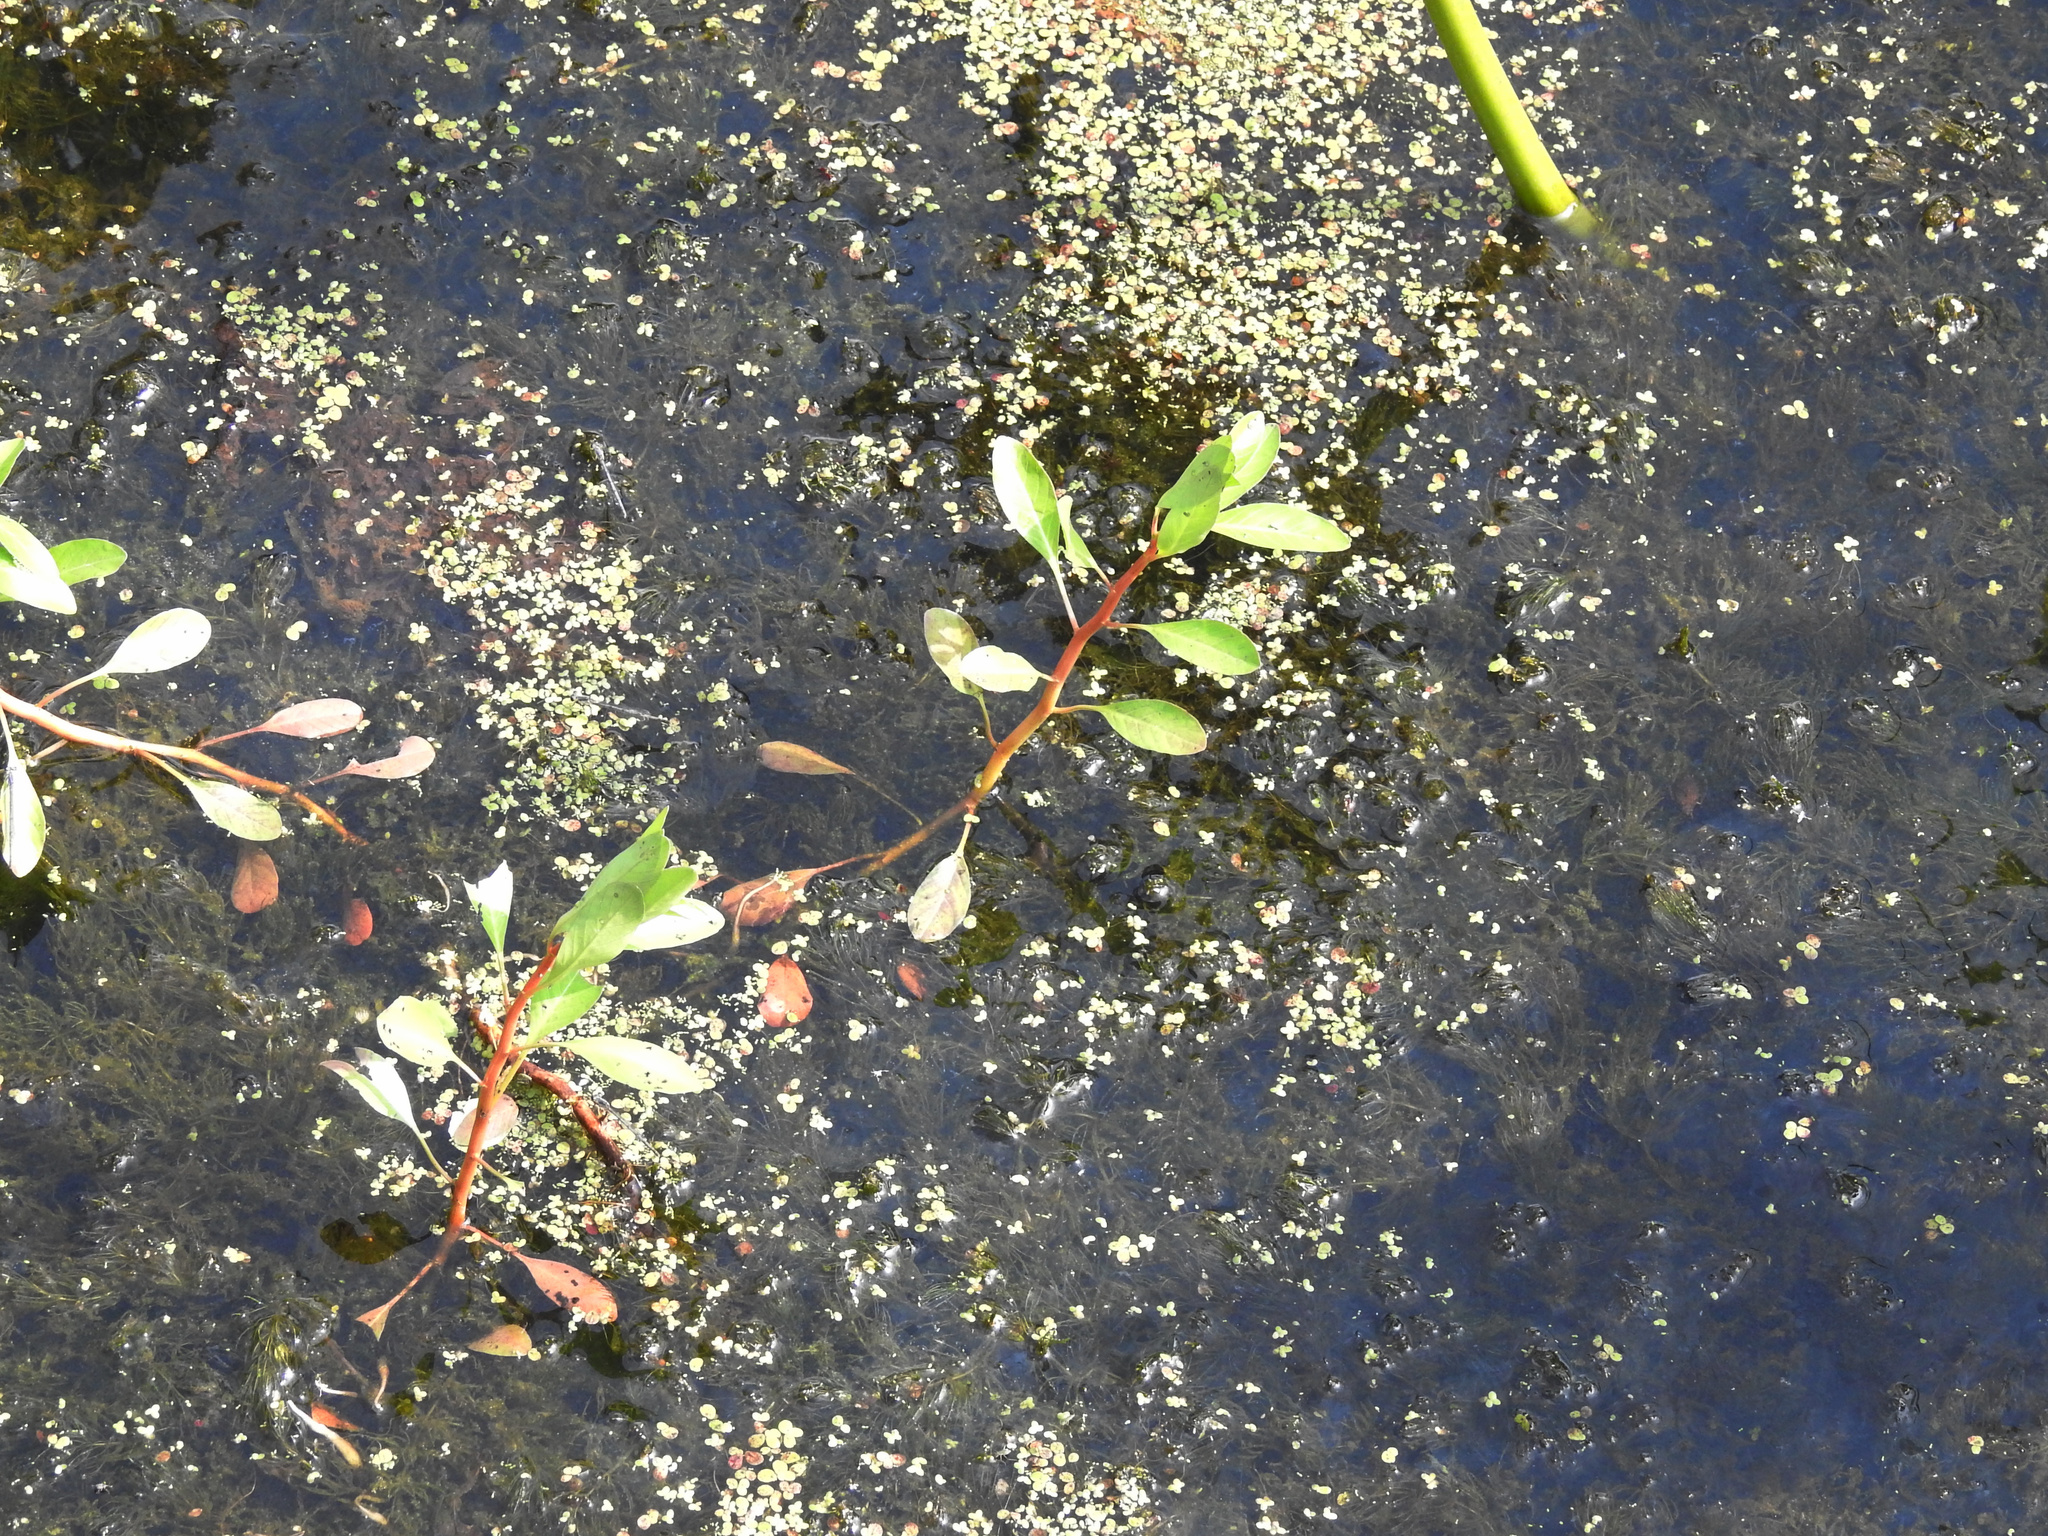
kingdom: Plantae
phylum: Tracheophyta
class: Magnoliopsida
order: Myrtales
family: Onagraceae
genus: Ludwigia
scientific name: Ludwigia peploides
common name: Floating primrose-willow
